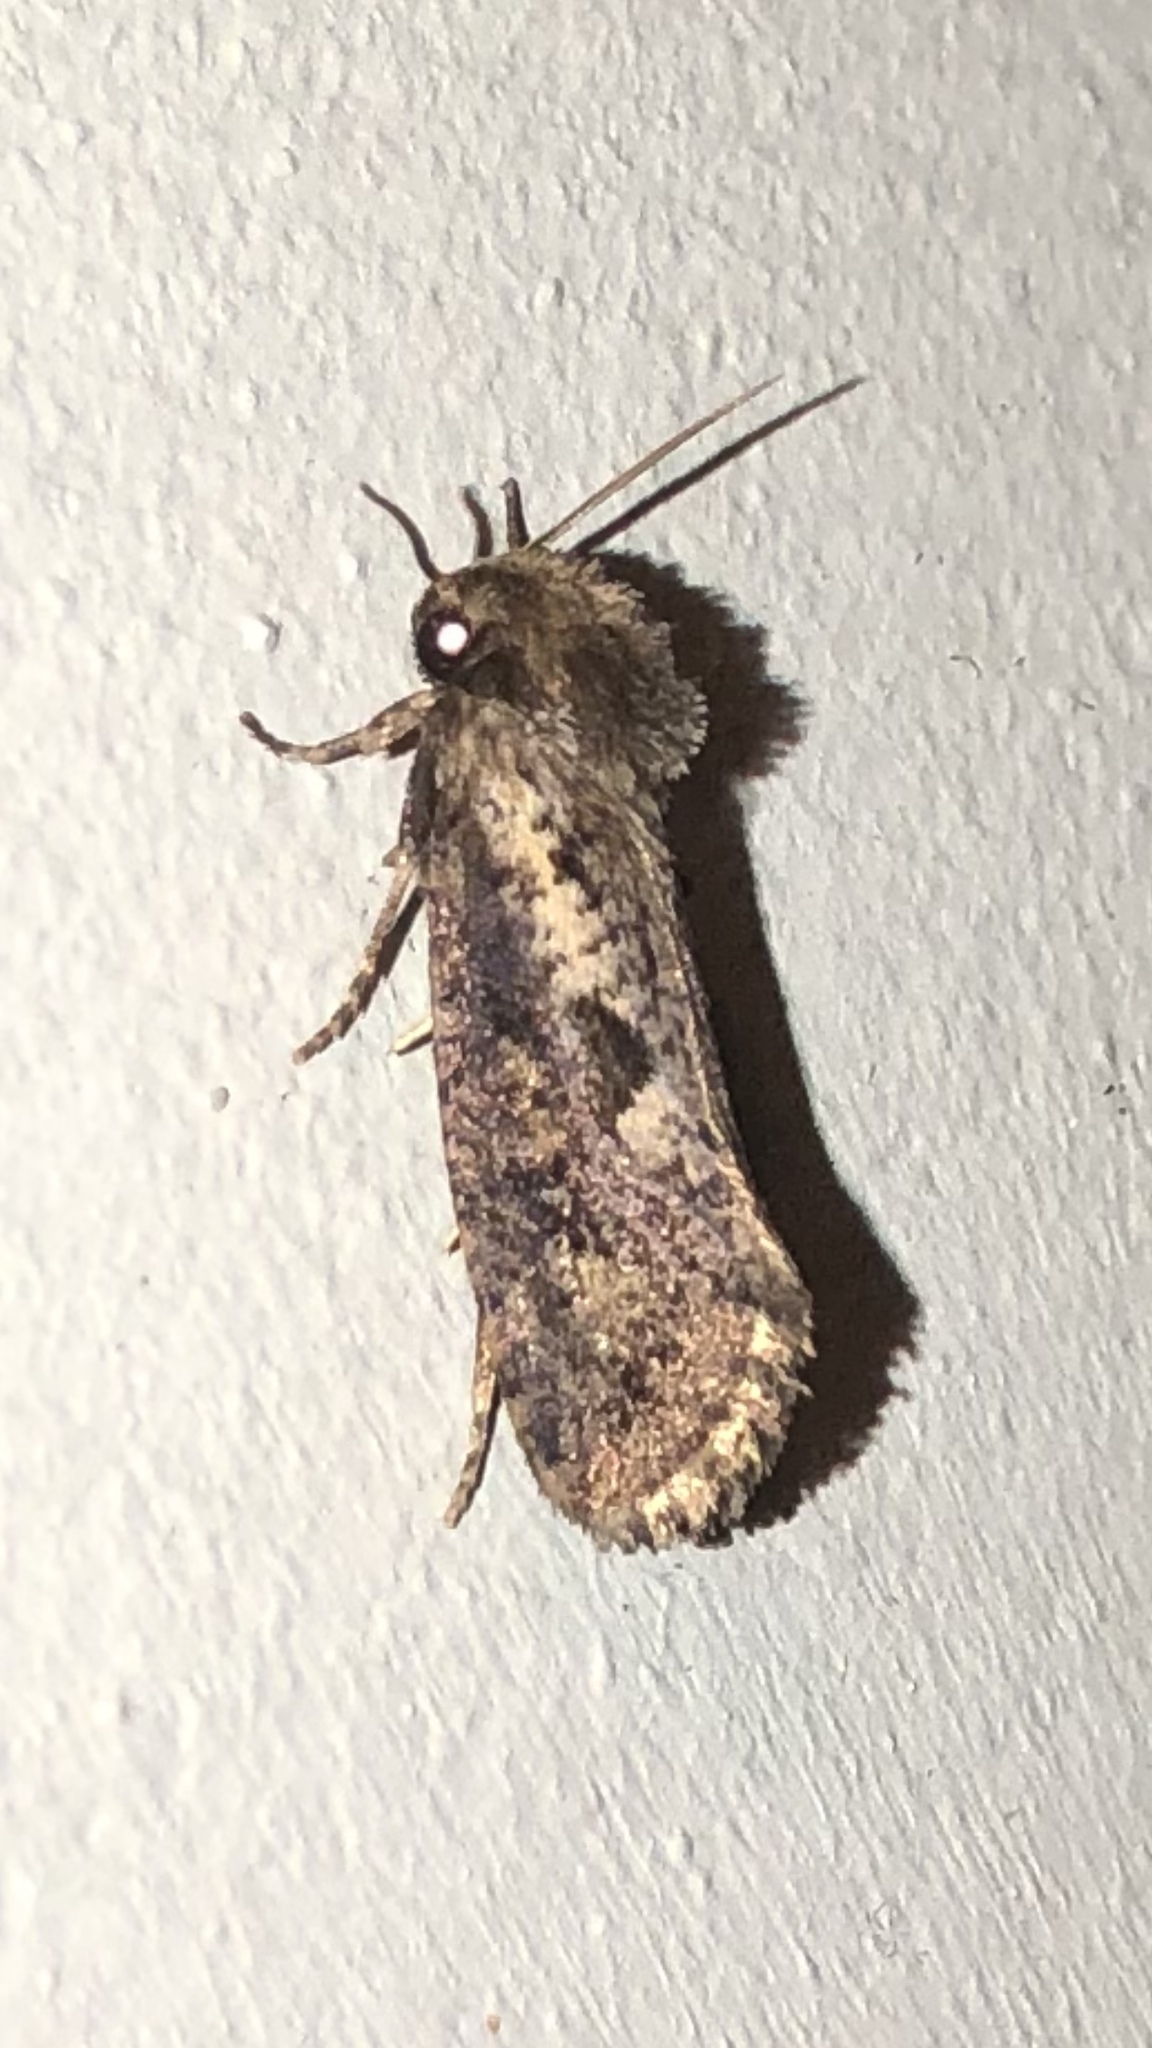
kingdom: Animalia
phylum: Arthropoda
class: Insecta
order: Lepidoptera
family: Tineidae
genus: Acrolophus
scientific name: Acrolophus popeanella
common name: Clemens' grass tubeworm moth
